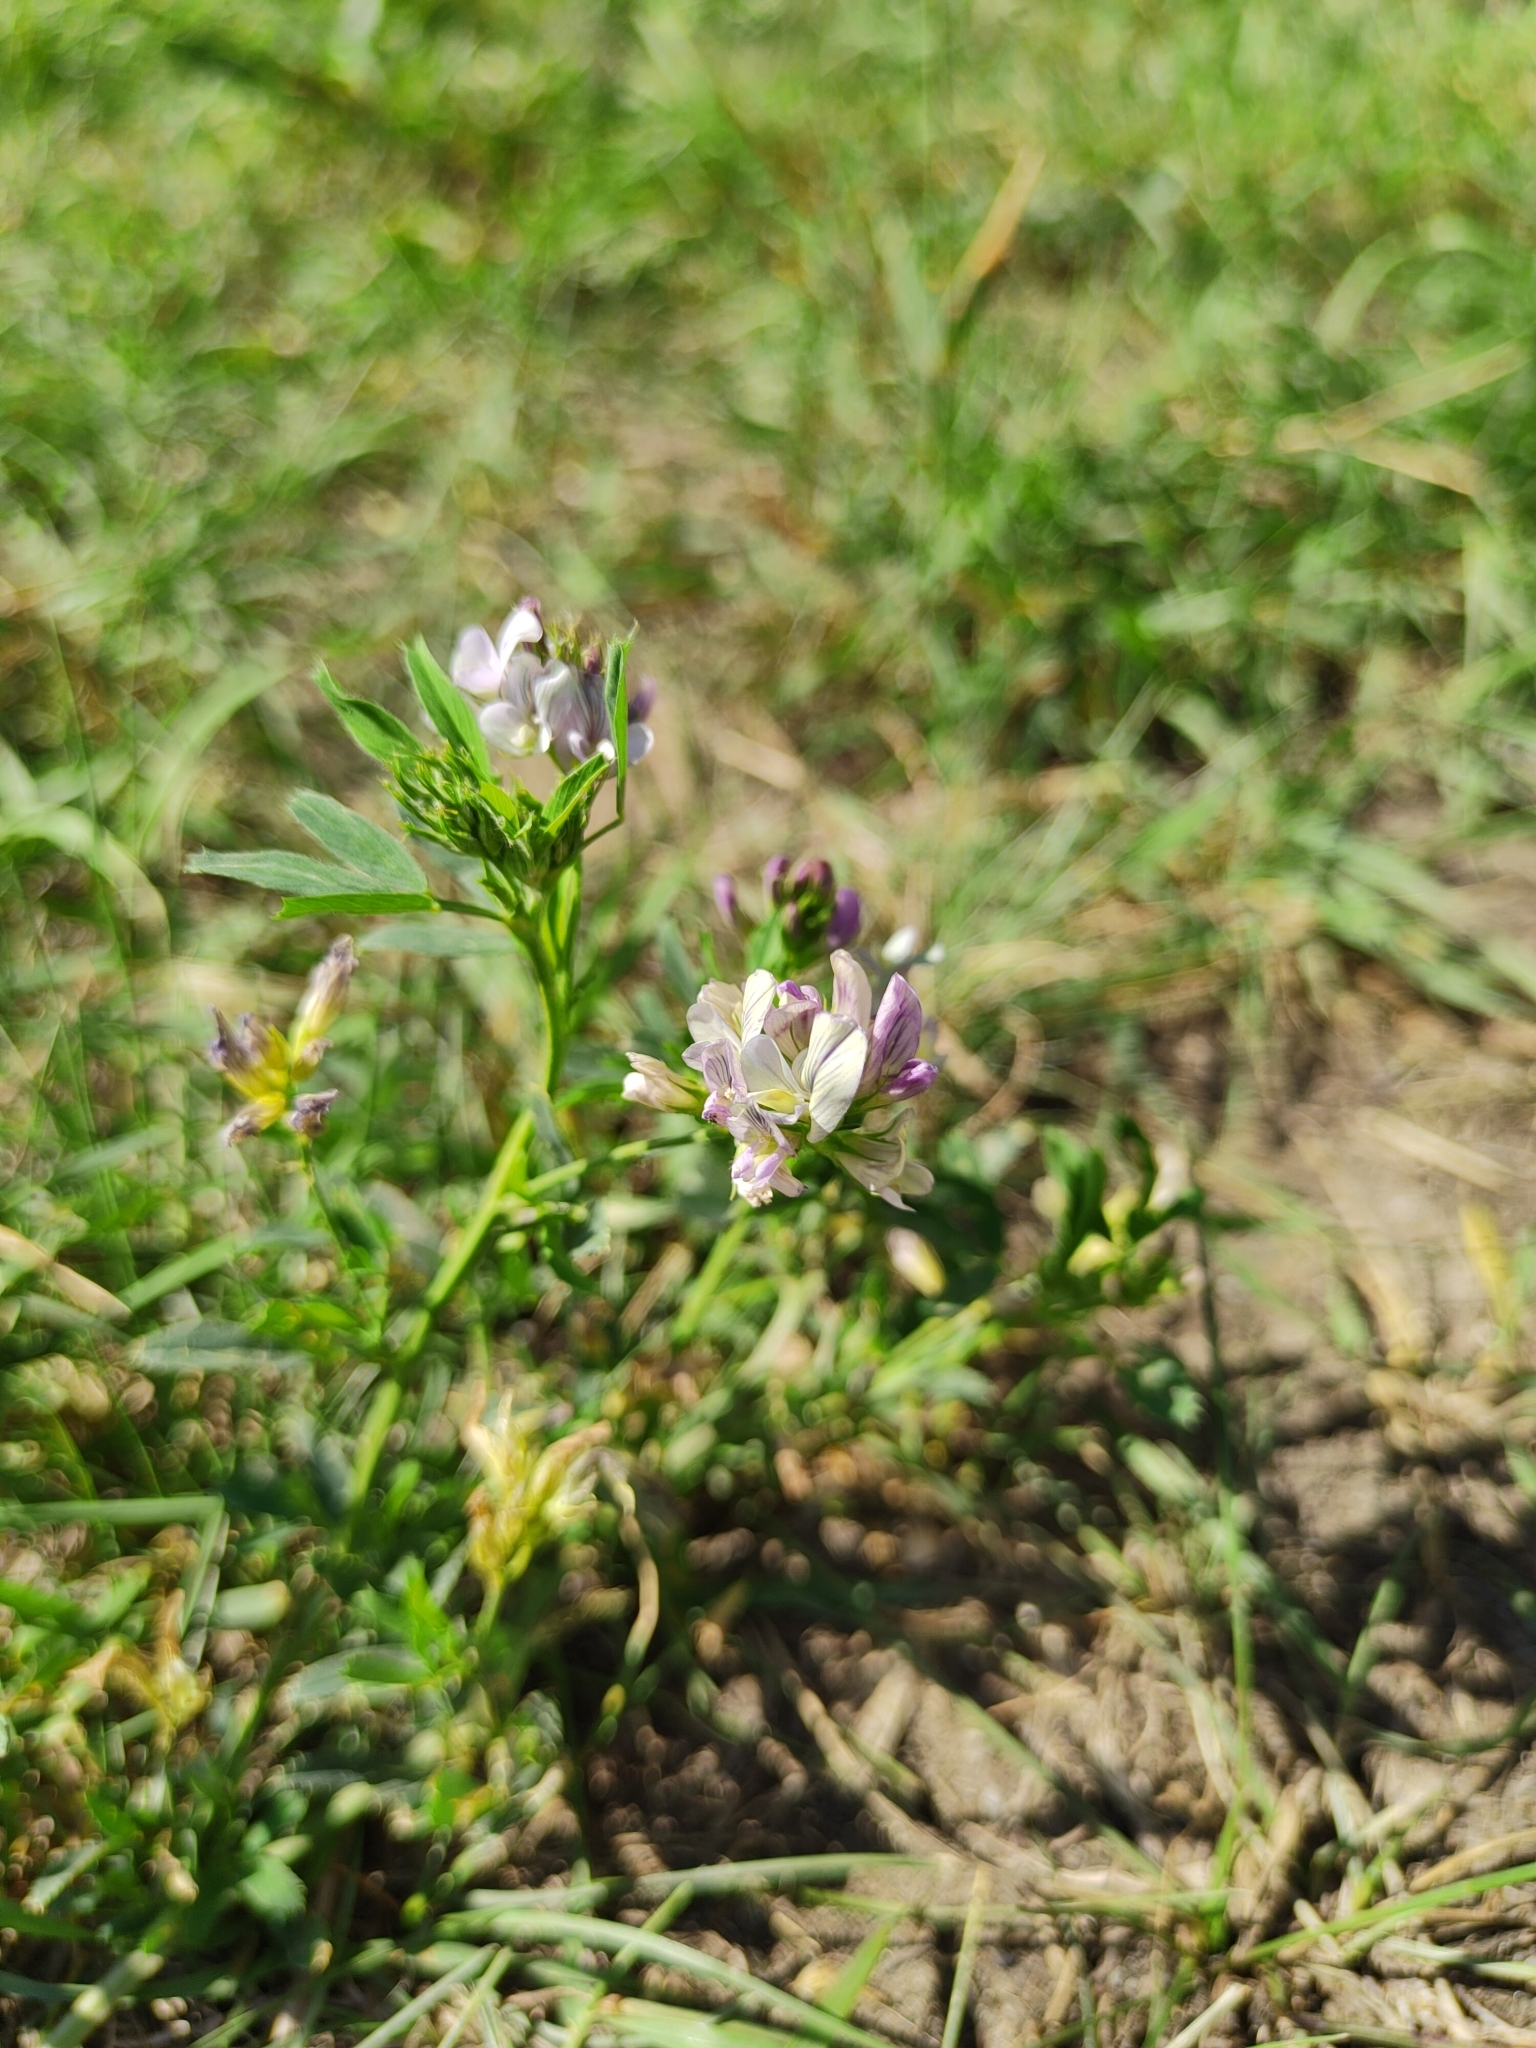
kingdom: Plantae
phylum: Tracheophyta
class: Magnoliopsida
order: Fabales
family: Fabaceae
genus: Medicago
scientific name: Medicago varia
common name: Sand lucerne
